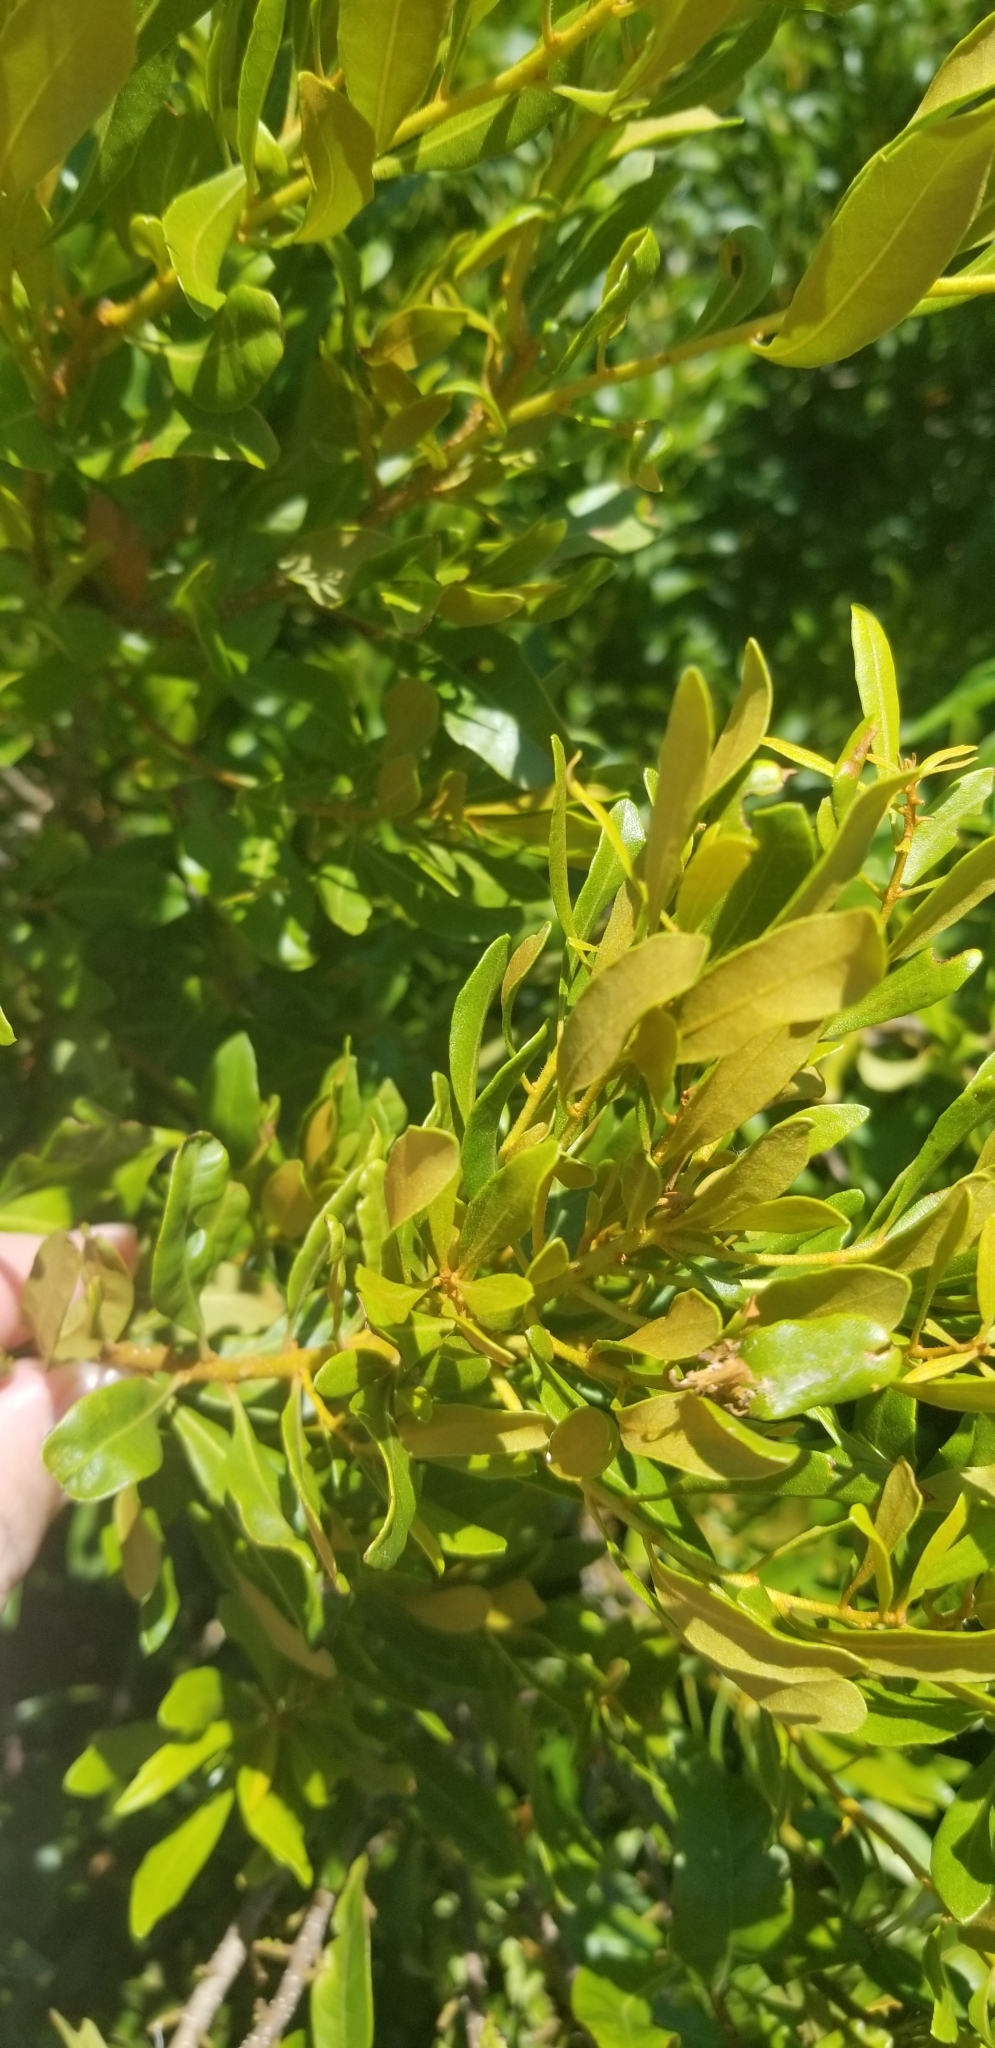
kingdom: Plantae
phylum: Tracheophyta
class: Magnoliopsida
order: Fagales
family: Myricaceae
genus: Morella
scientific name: Morella cerifera
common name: Wax myrtle
